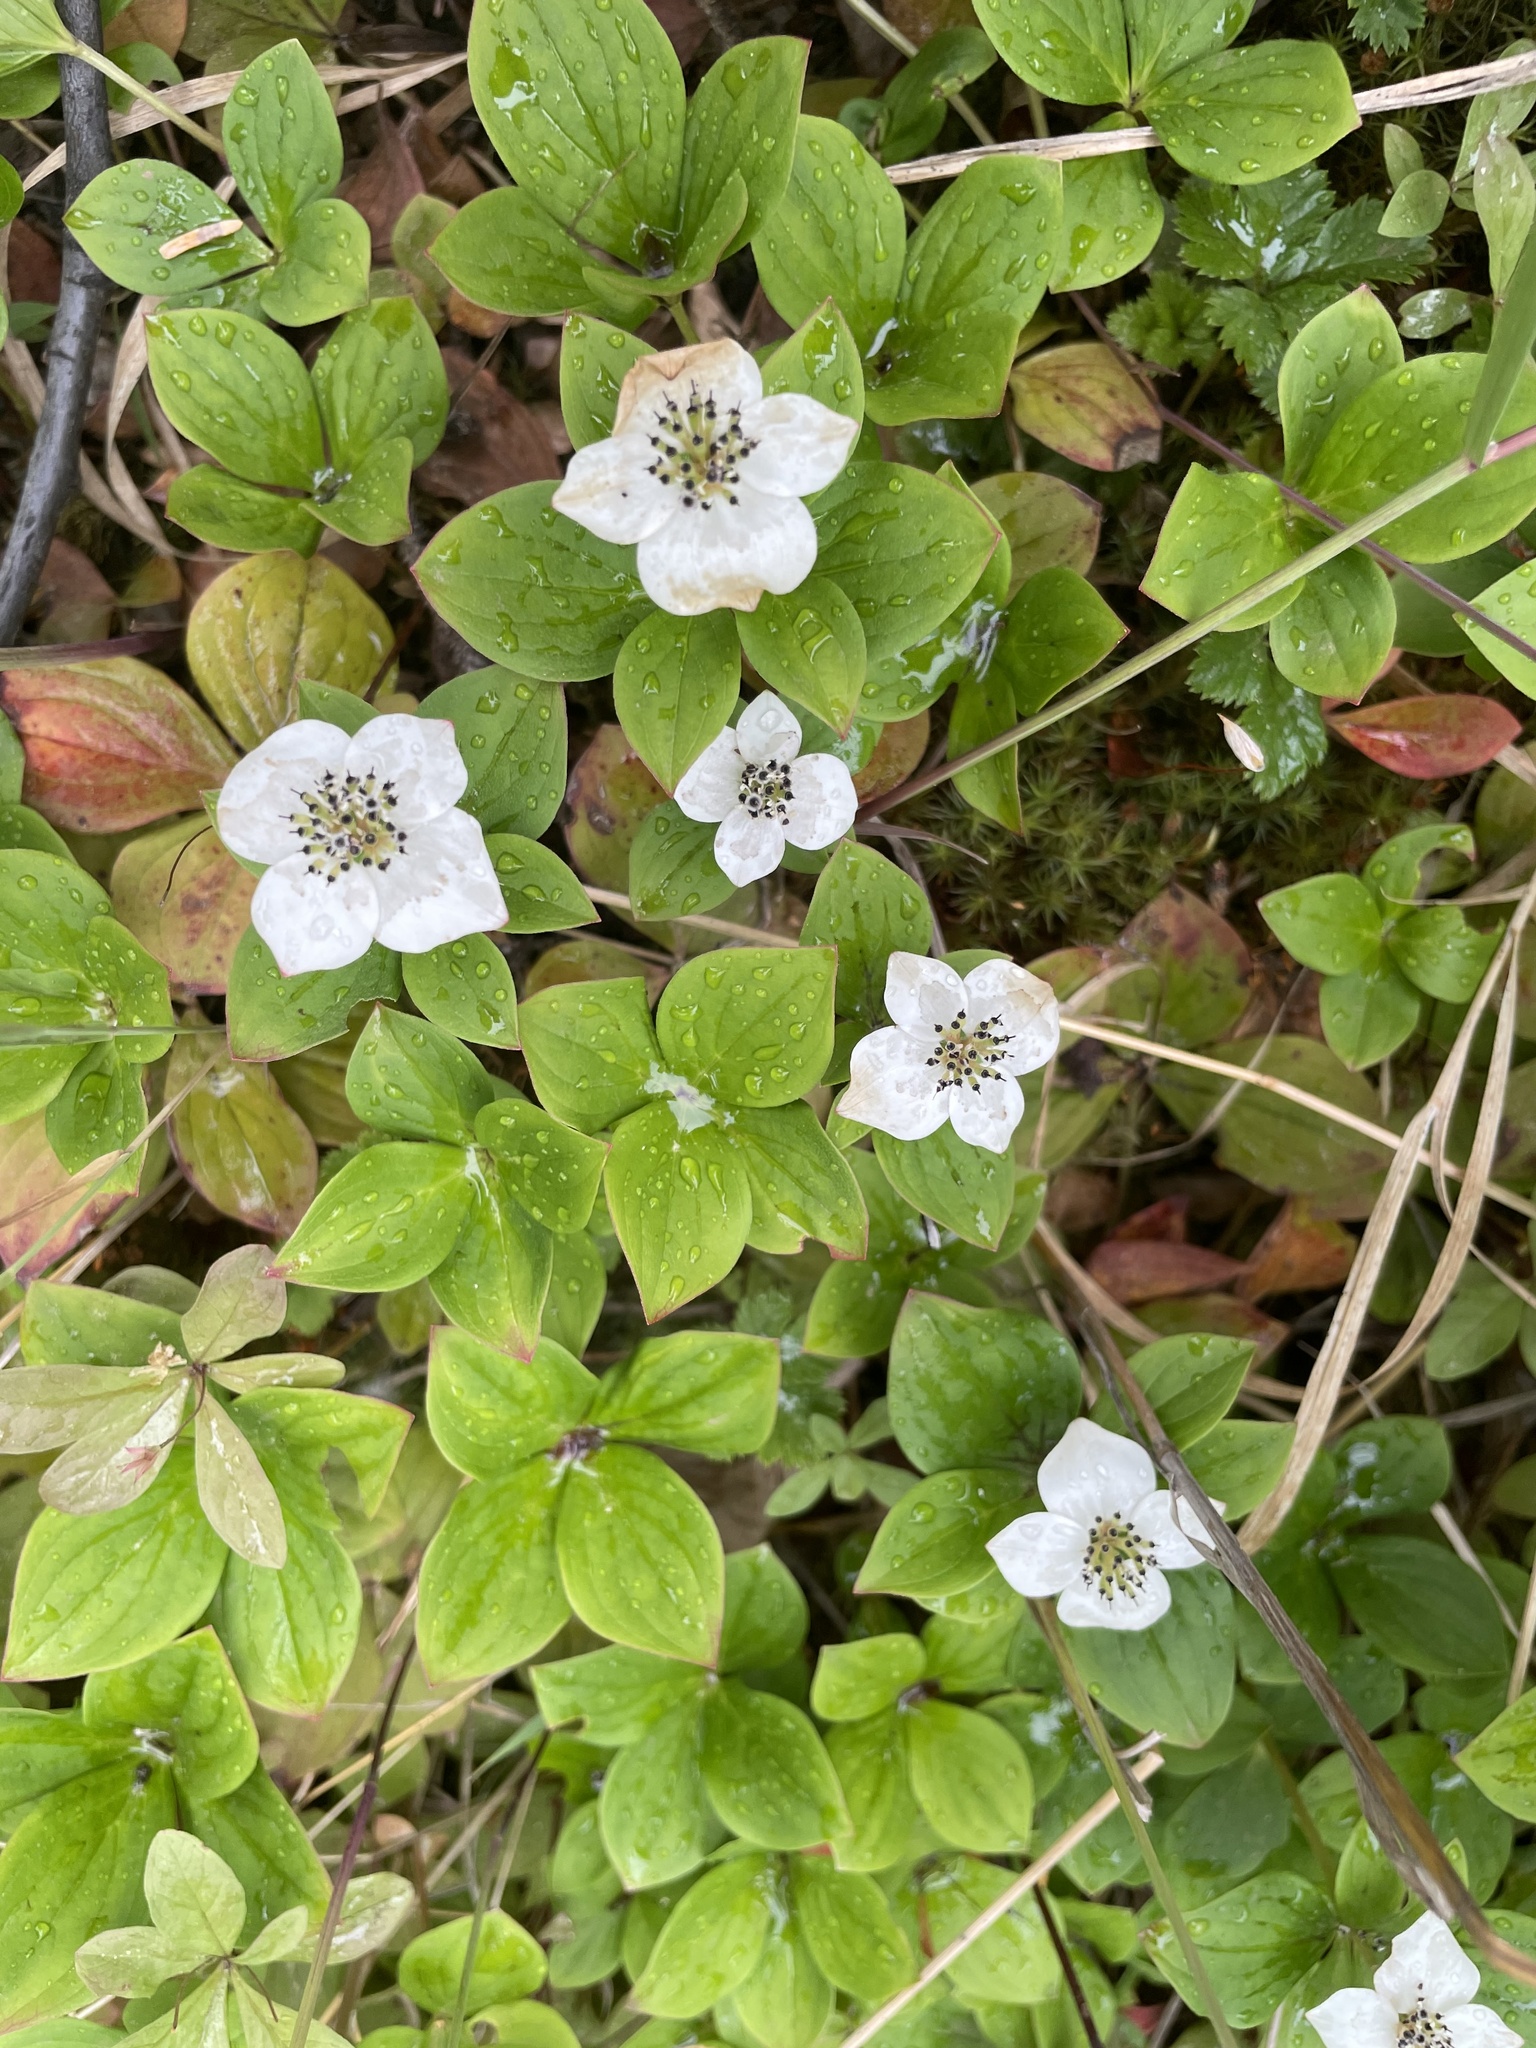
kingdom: Plantae
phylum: Tracheophyta
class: Magnoliopsida
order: Cornales
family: Cornaceae
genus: Cornus
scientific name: Cornus unalaschkensis
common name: Alaska bunchberry
